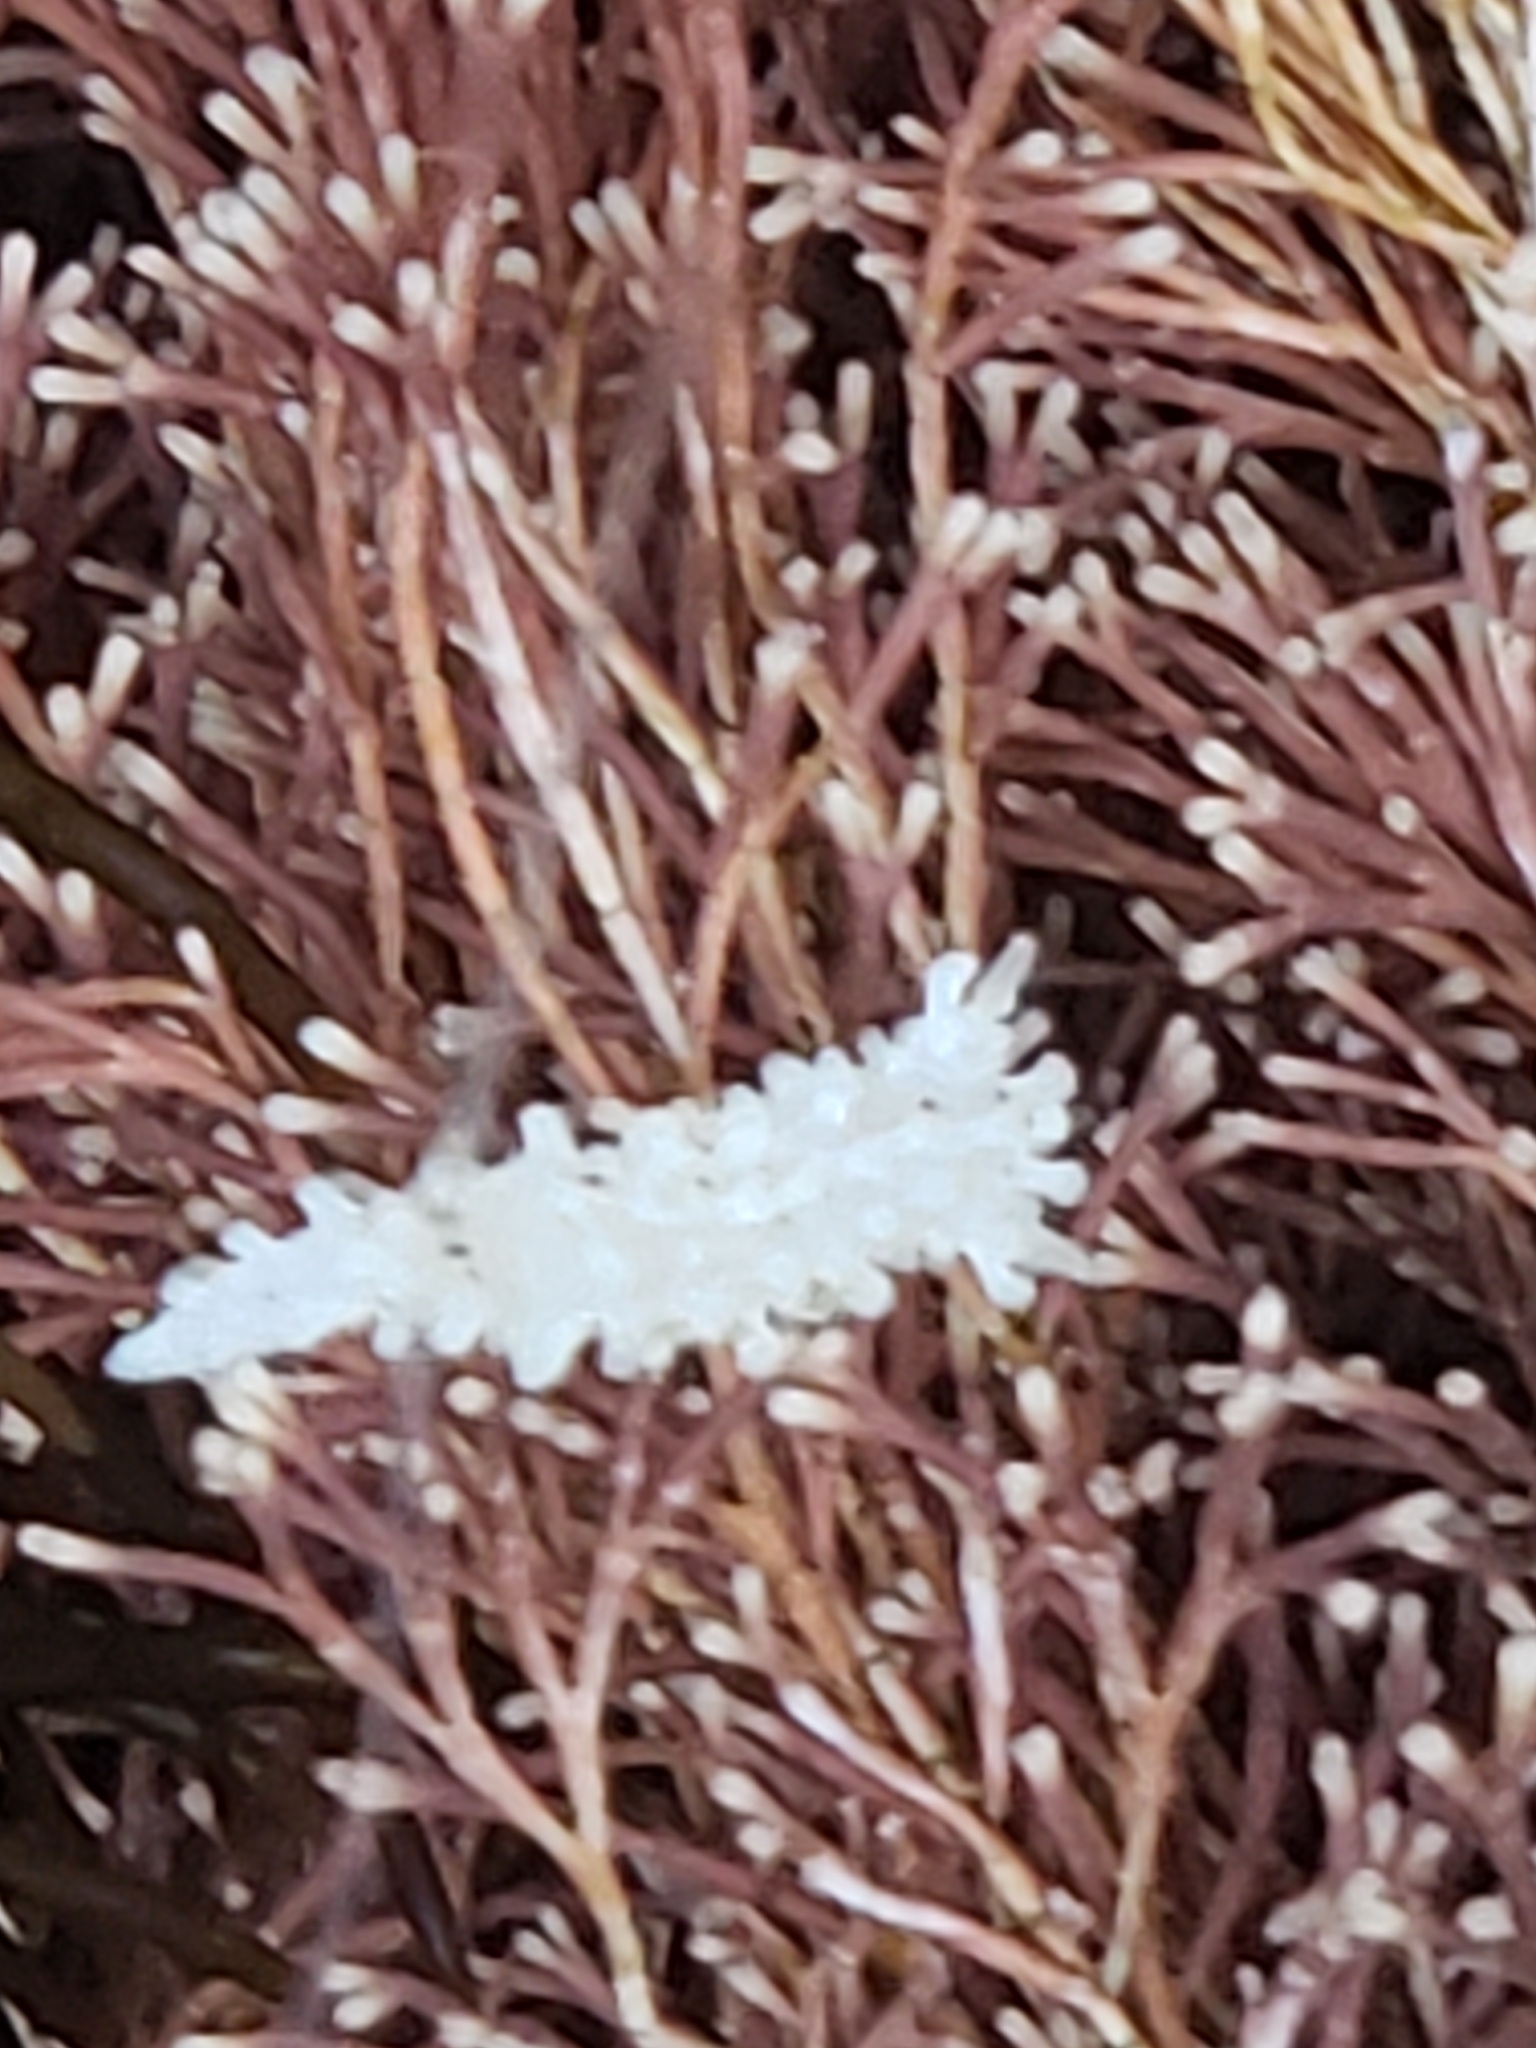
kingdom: Animalia
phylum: Mollusca
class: Gastropoda
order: Nudibranchia
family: Aegiridae
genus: Aegires
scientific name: Aegires albopunctatus
